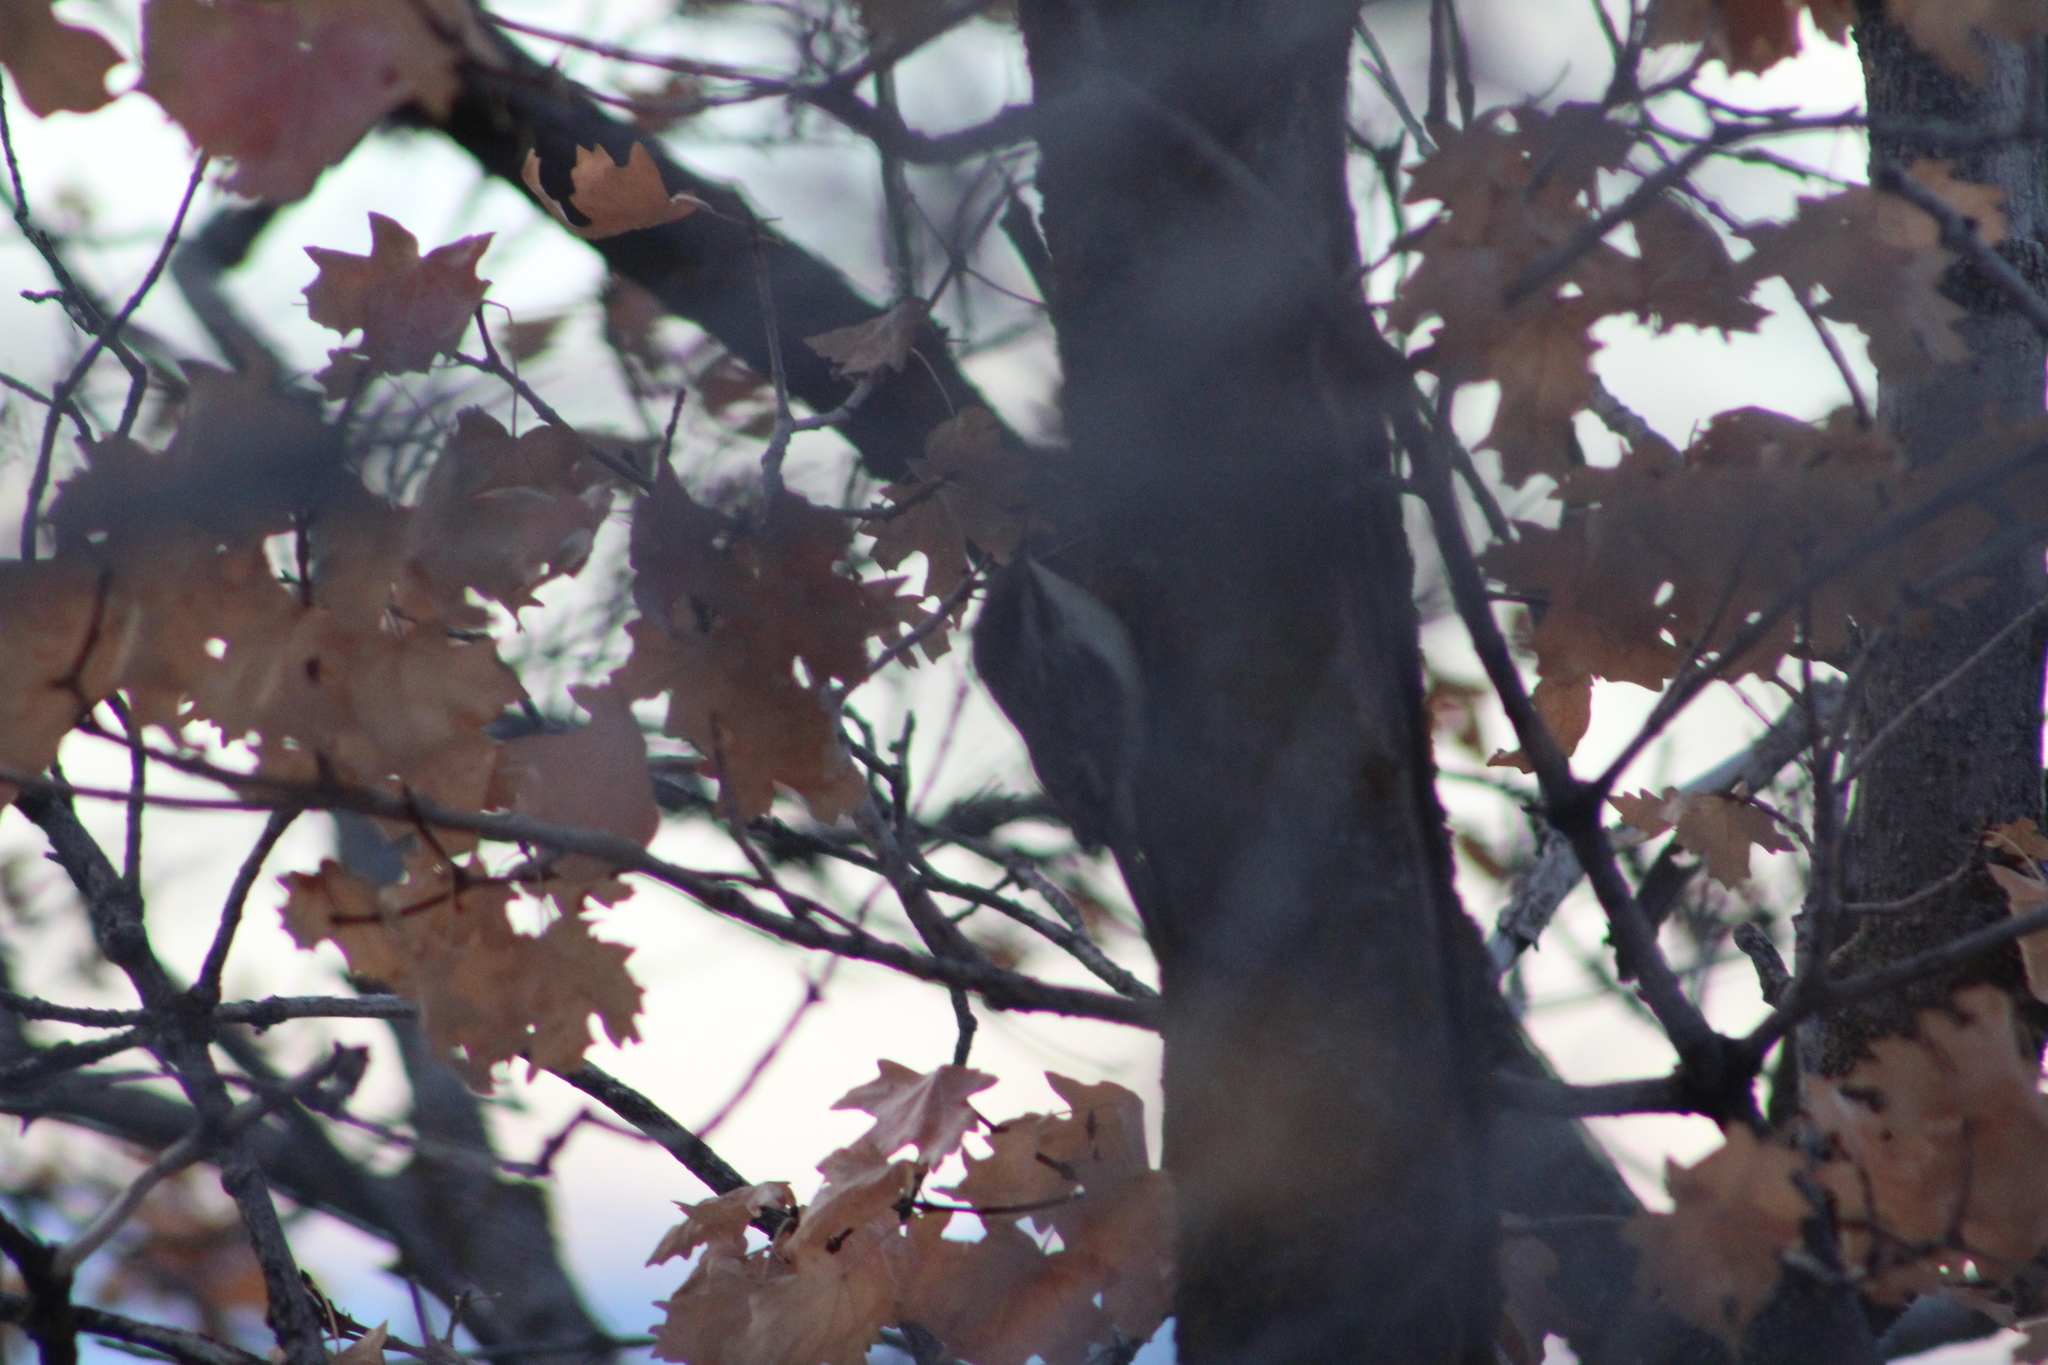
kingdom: Animalia
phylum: Chordata
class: Aves
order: Passeriformes
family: Certhiidae
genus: Certhia
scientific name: Certhia americana
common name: Brown creeper
